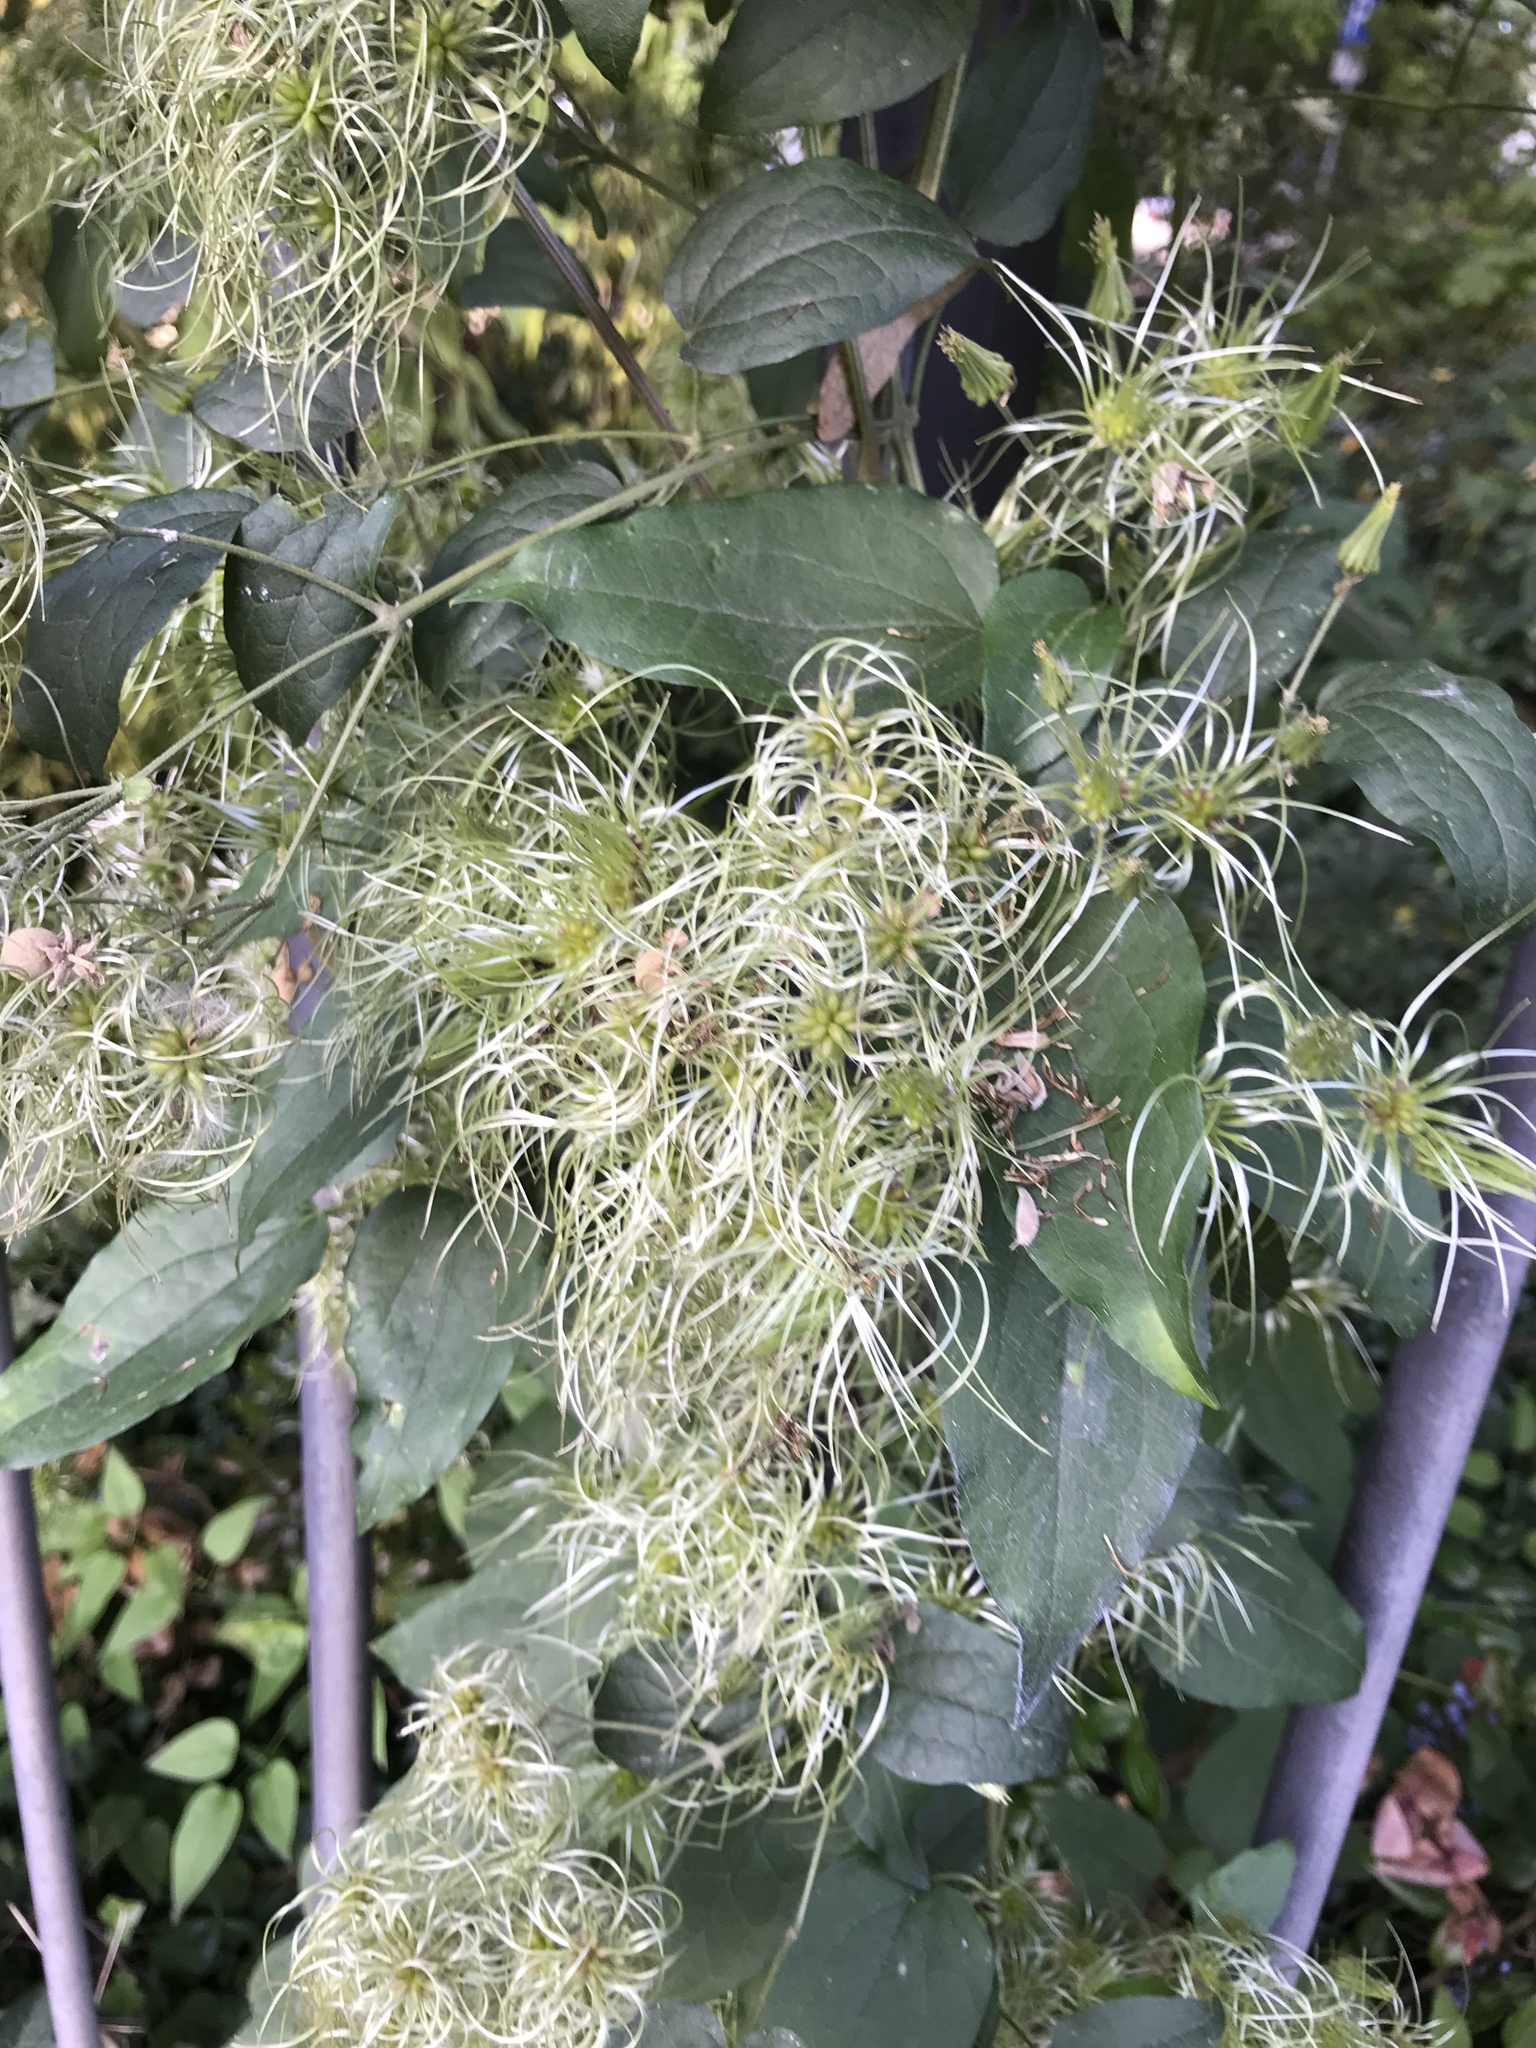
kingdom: Plantae
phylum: Tracheophyta
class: Magnoliopsida
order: Ranunculales
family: Ranunculaceae
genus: Clematis
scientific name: Clematis vitalba
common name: Evergreen clematis
